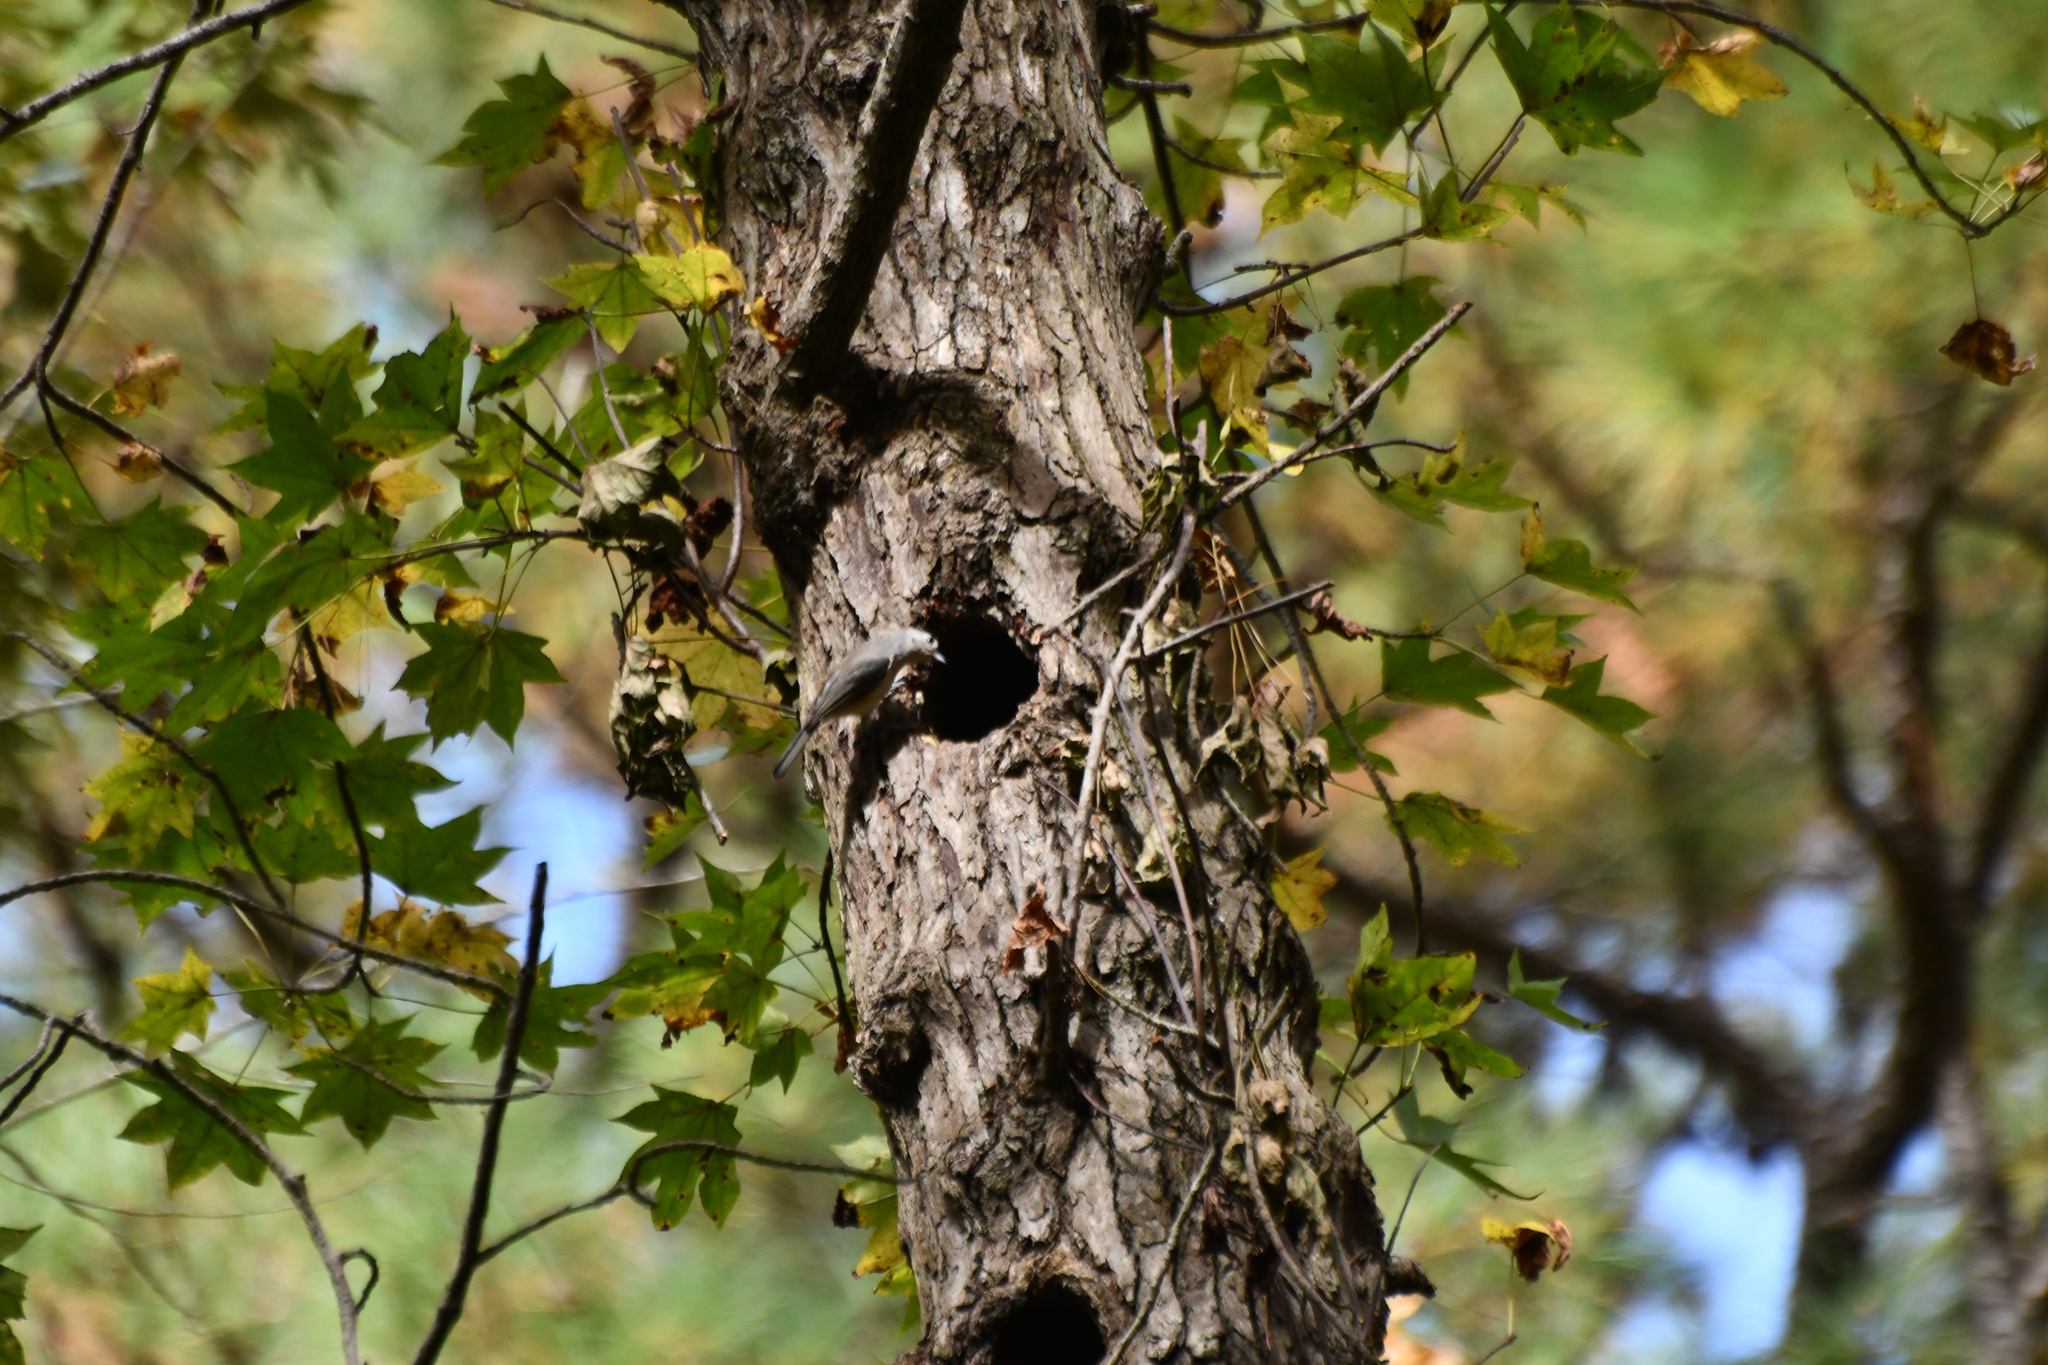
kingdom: Animalia
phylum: Chordata
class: Aves
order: Passeriformes
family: Paridae
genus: Baeolophus
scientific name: Baeolophus bicolor
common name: Tufted titmouse
